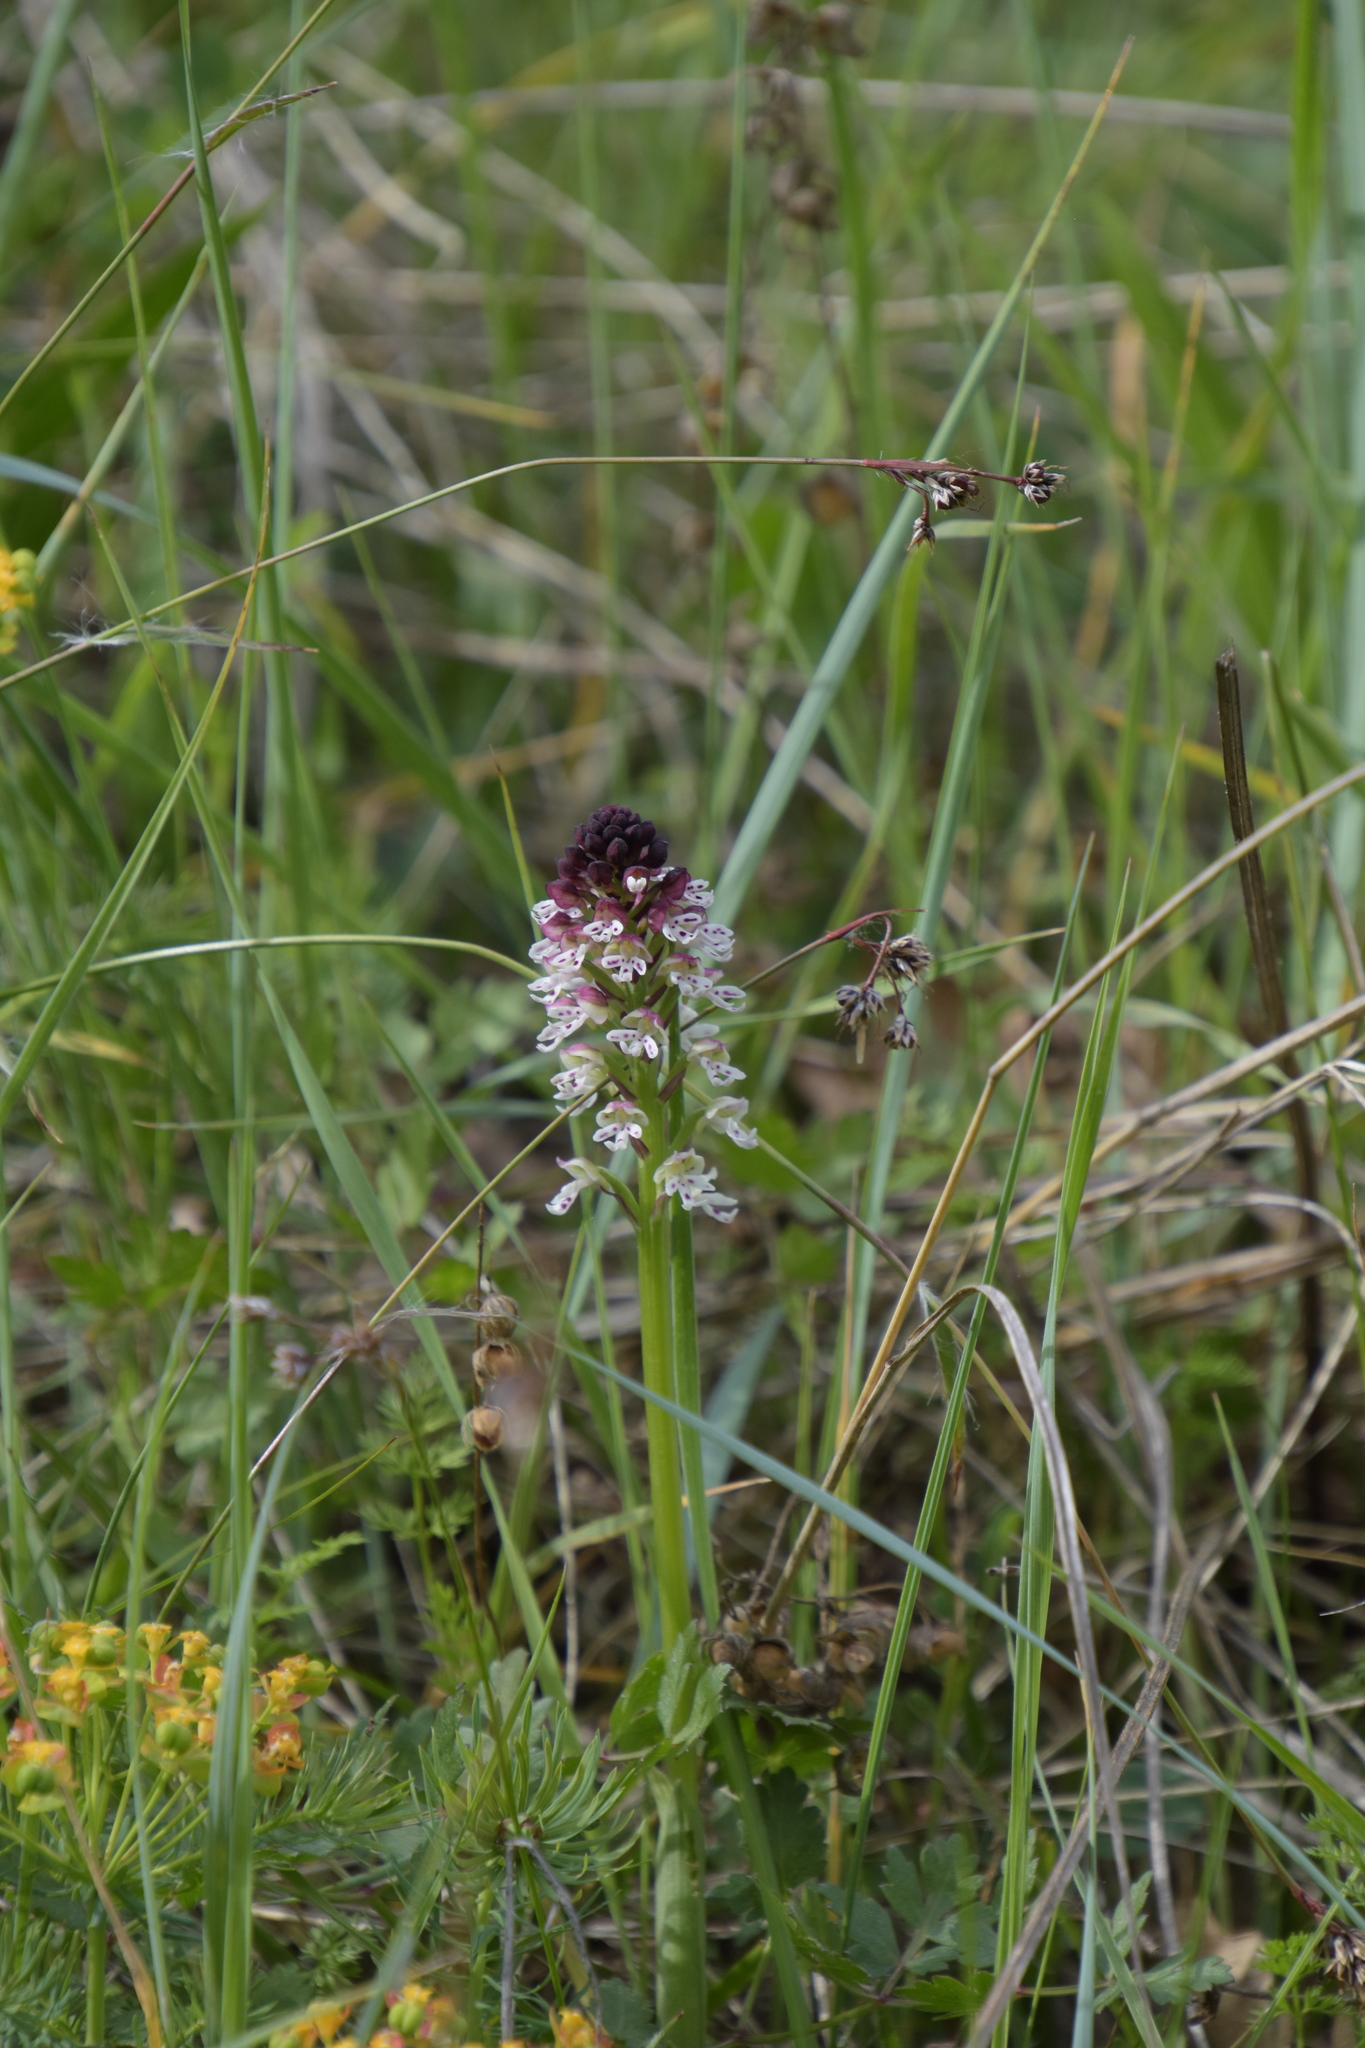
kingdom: Plantae
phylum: Tracheophyta
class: Liliopsida
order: Asparagales
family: Orchidaceae
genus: Neotinea
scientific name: Neotinea ustulata
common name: Burnt orchid
